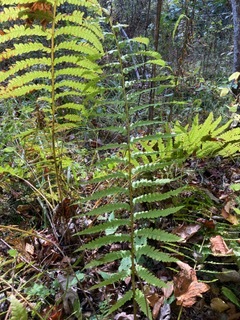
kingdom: Plantae
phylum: Tracheophyta
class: Polypodiopsida
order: Osmundales
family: Osmundaceae
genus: Osmundastrum
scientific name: Osmundastrum cinnamomeum
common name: Cinnamon fern
